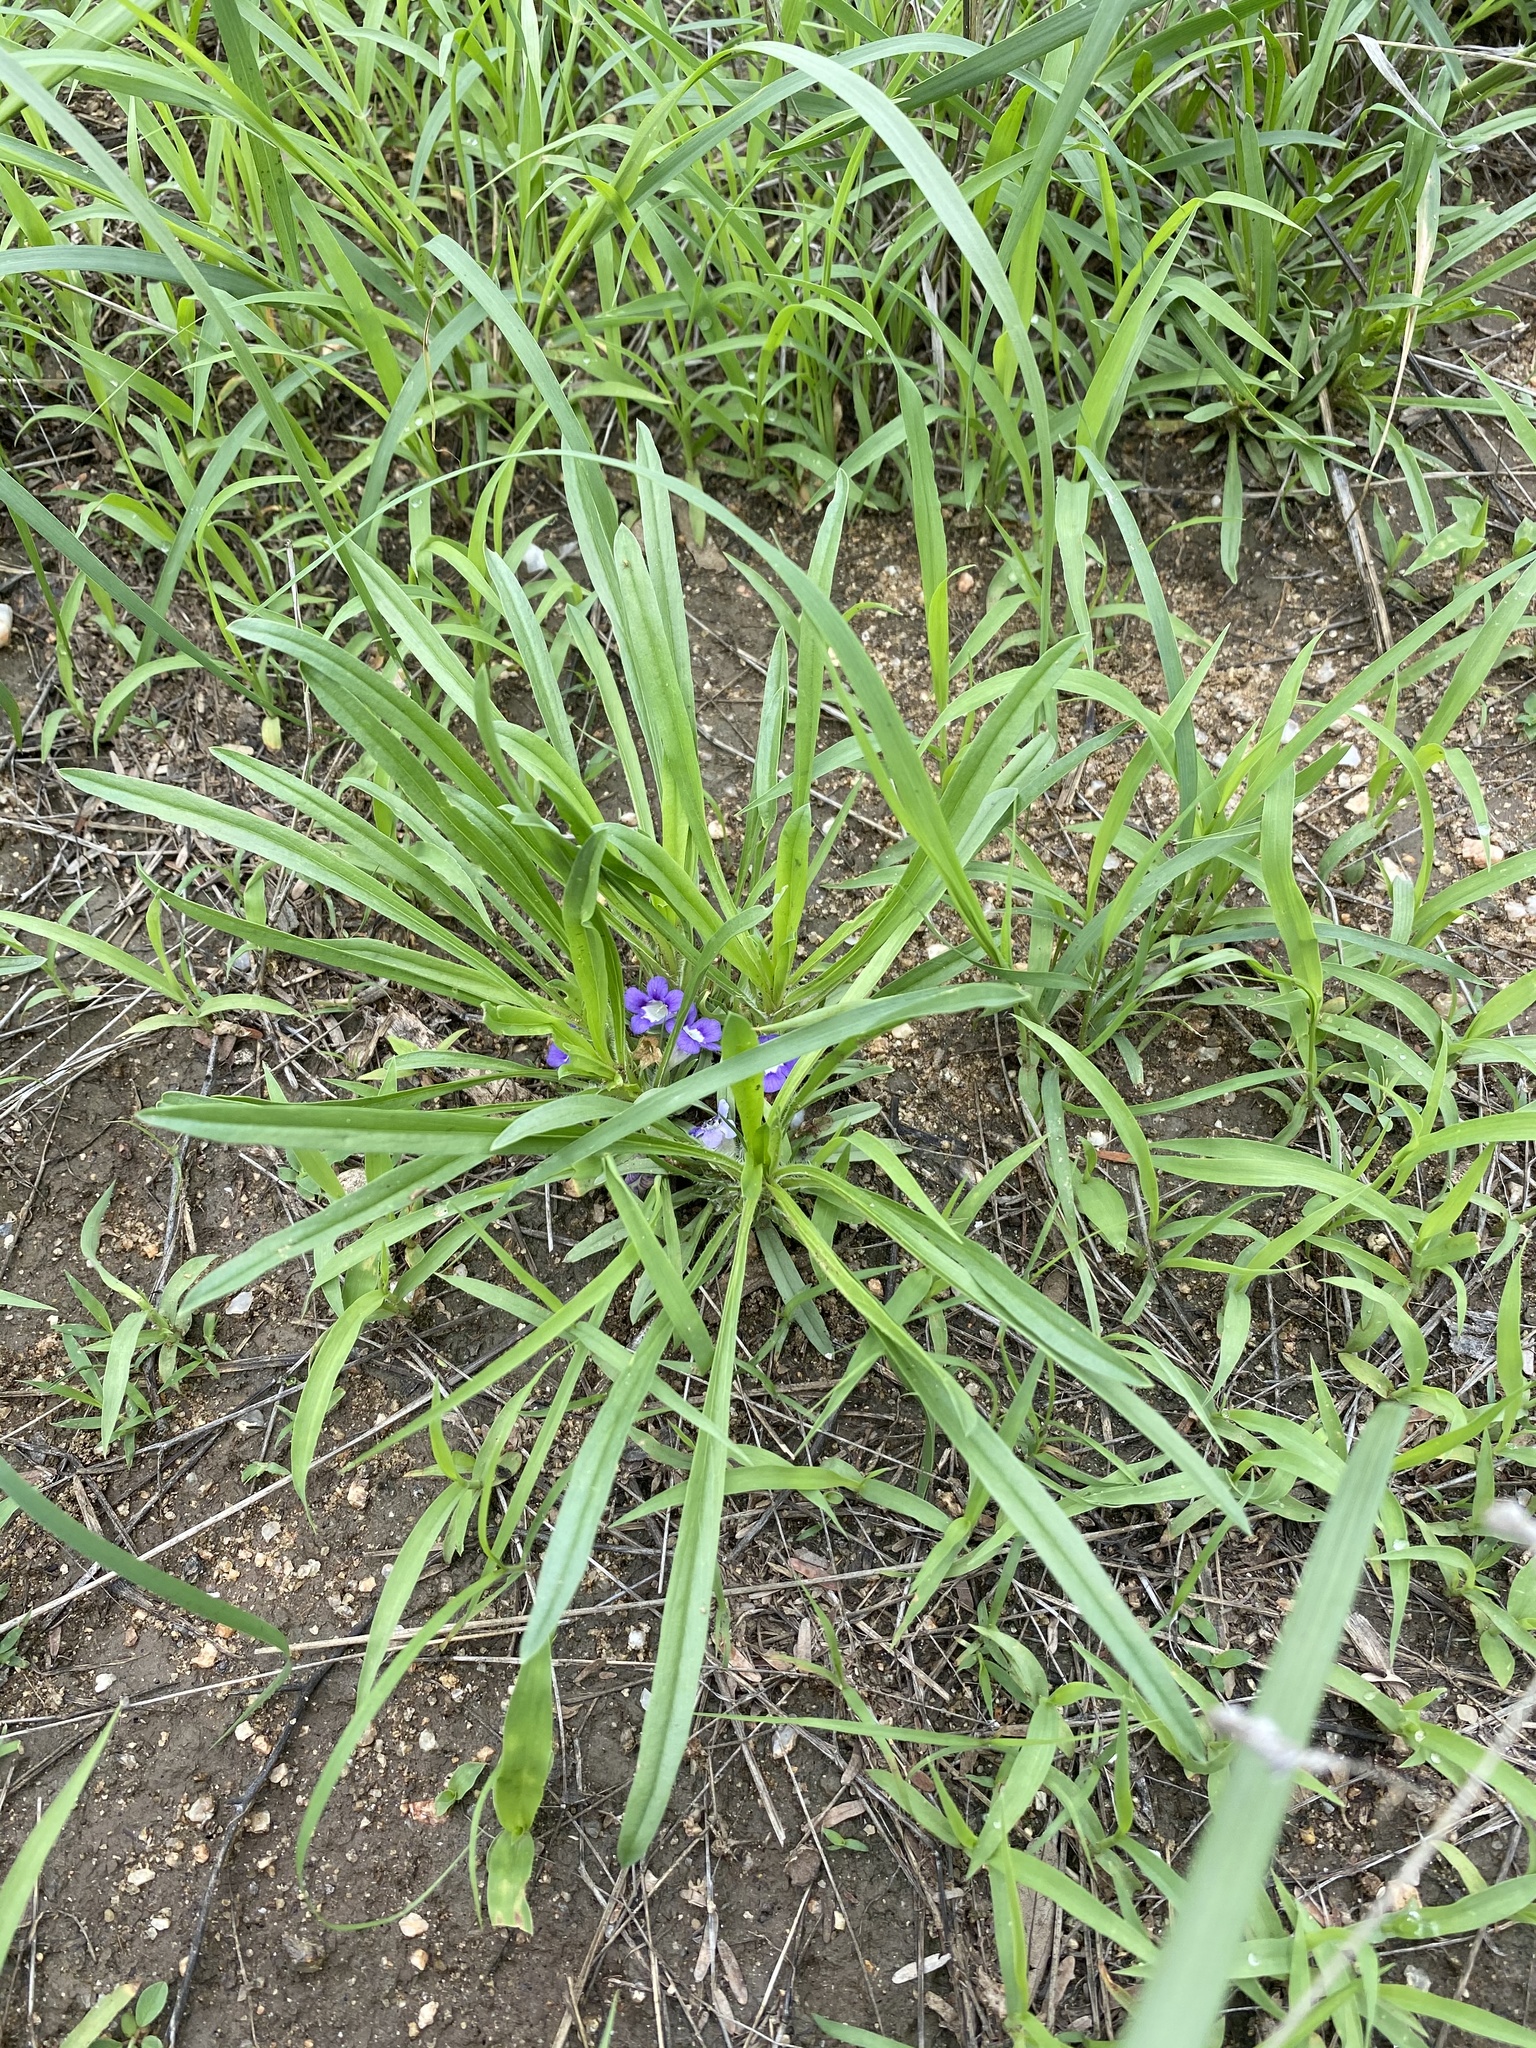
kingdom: Plantae
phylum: Tracheophyta
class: Magnoliopsida
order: Lamiales
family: Scrophulariaceae
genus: Aptosimum
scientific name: Aptosimum lineare
